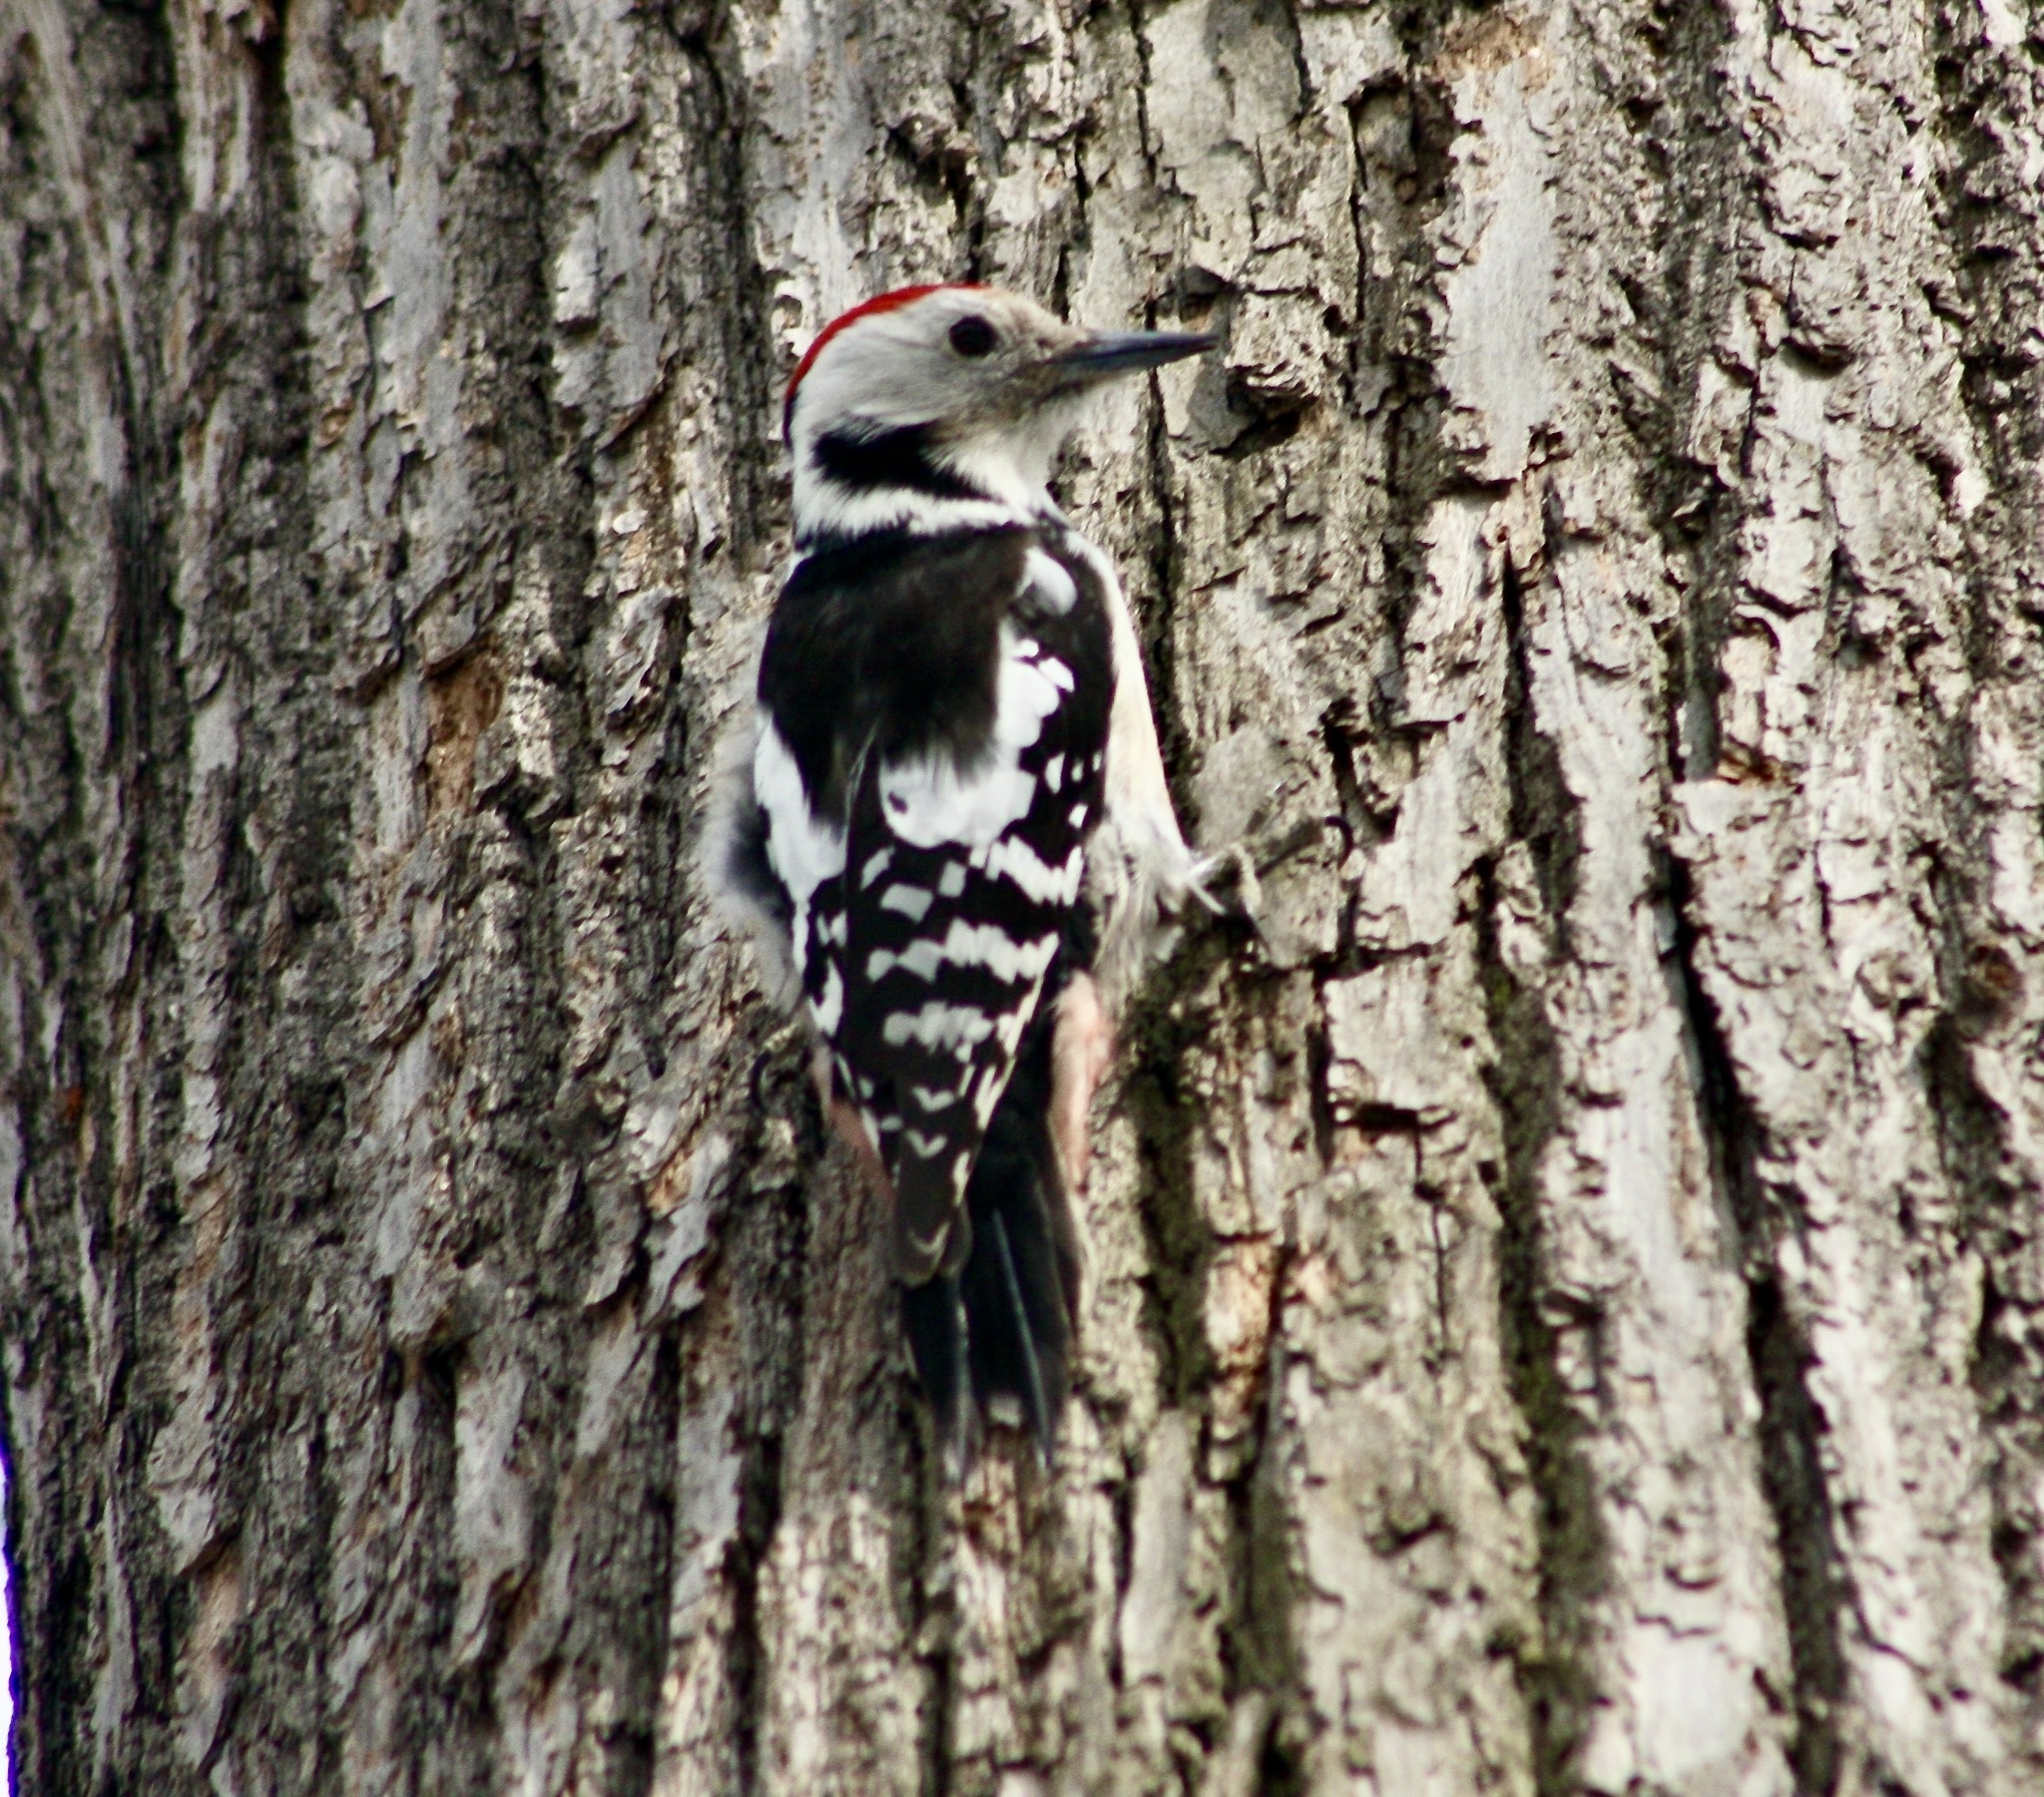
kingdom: Animalia
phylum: Chordata
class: Aves
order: Piciformes
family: Picidae
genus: Dendrocoptes
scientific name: Dendrocoptes medius
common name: Middle spotted woodpecker
